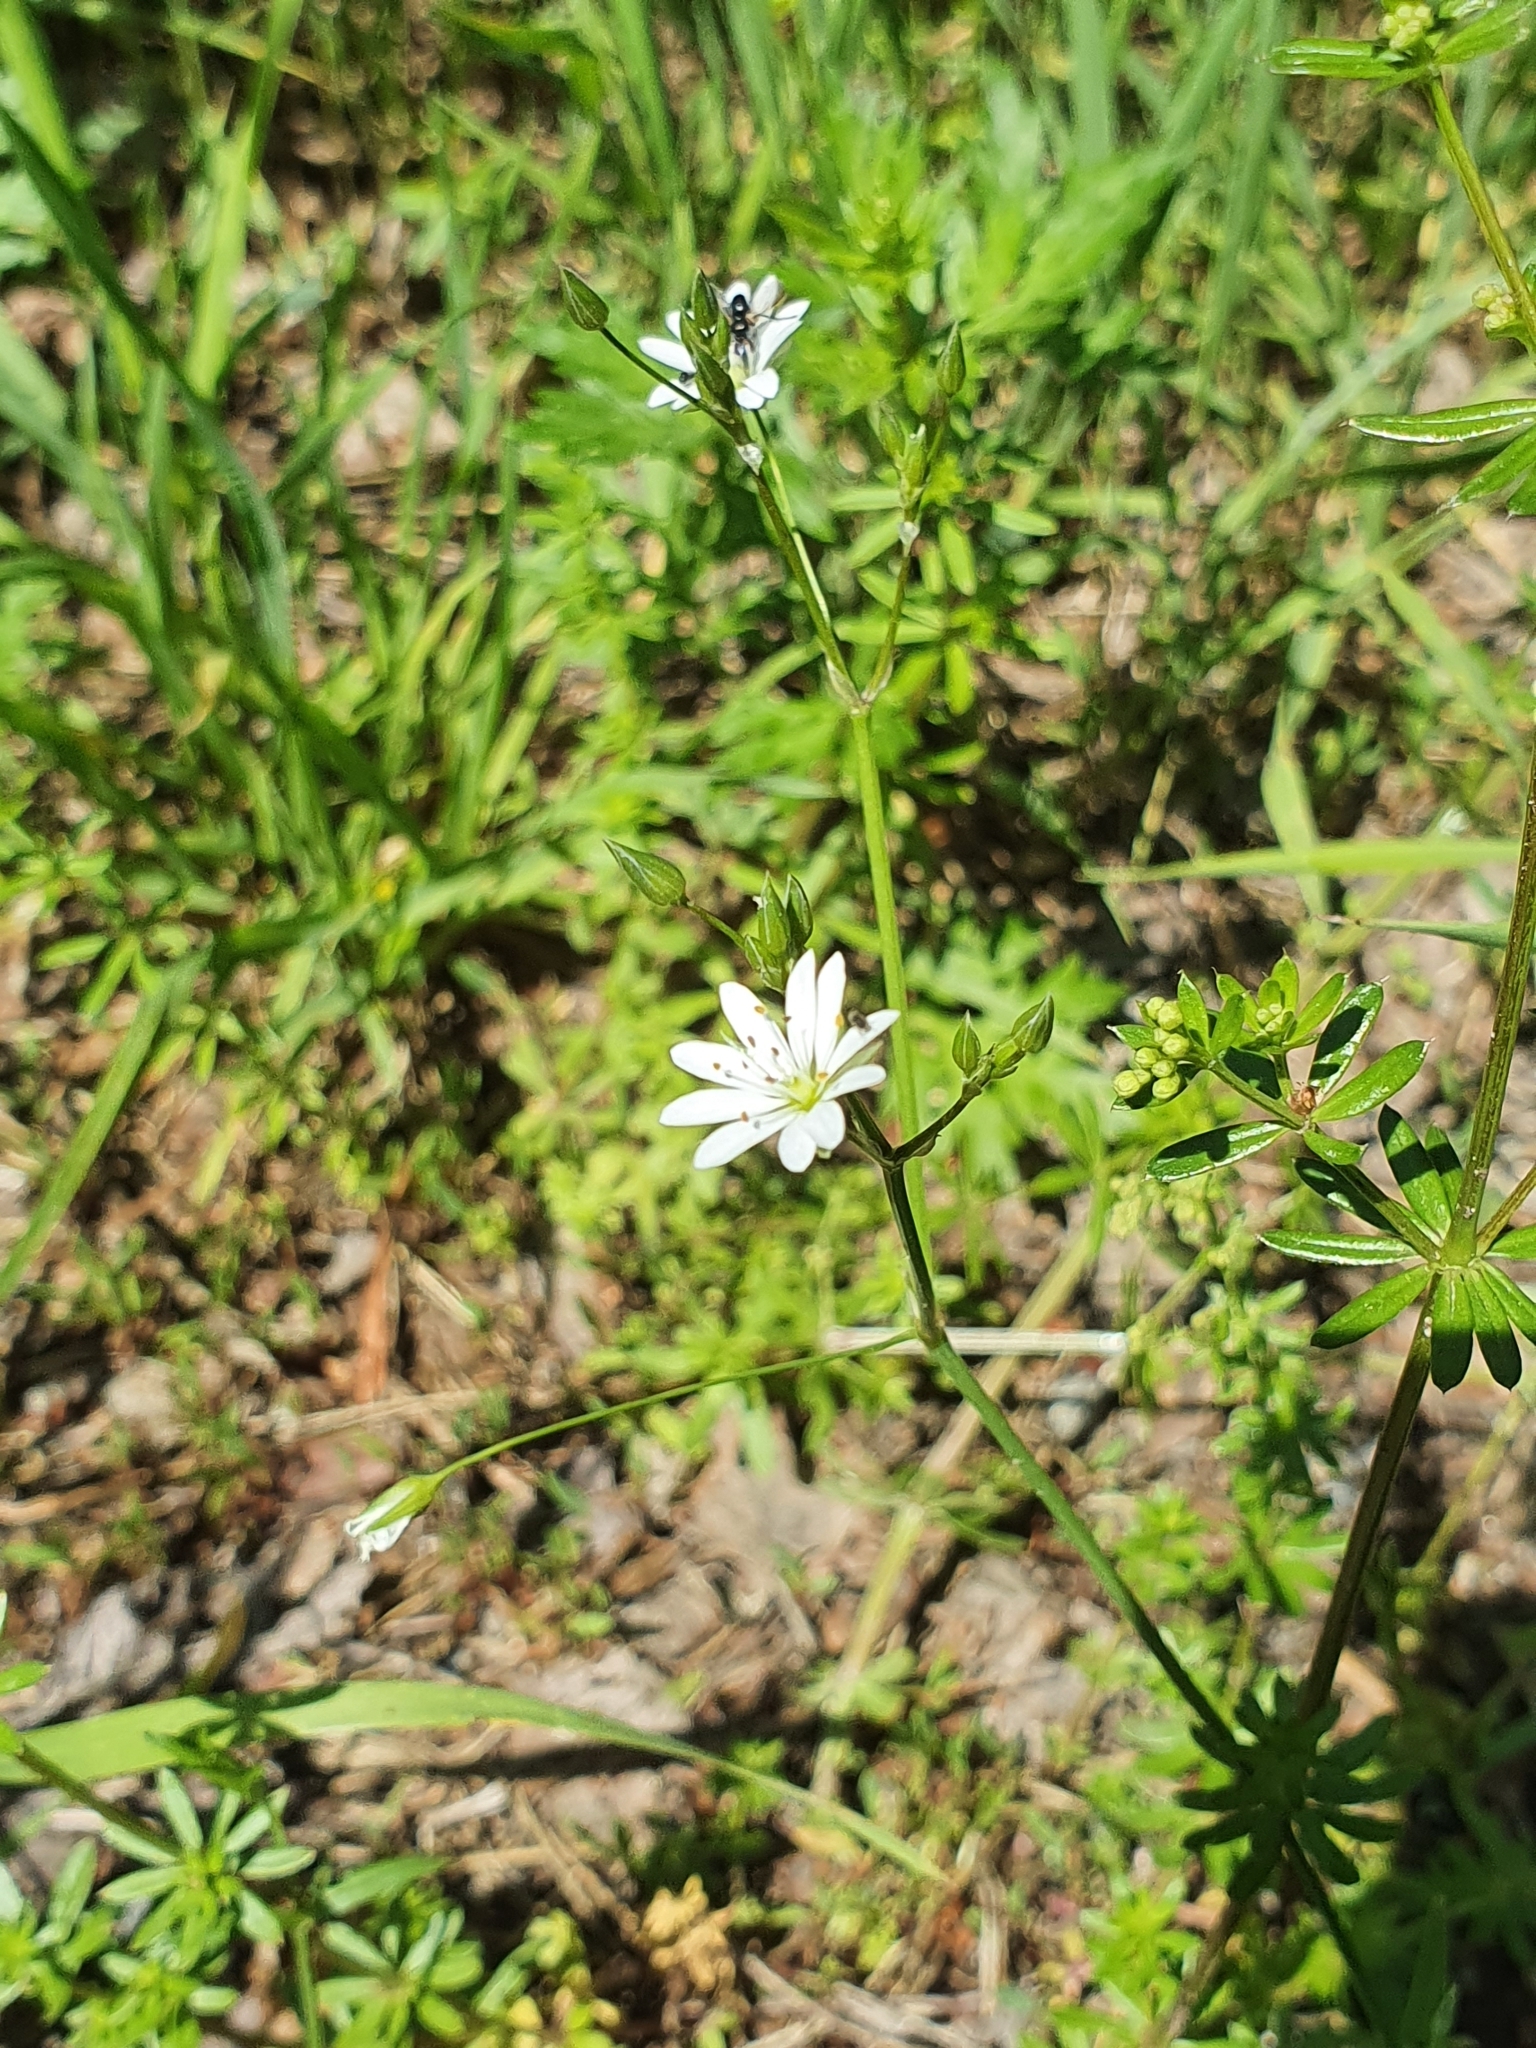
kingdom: Plantae
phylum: Tracheophyta
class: Magnoliopsida
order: Caryophyllales
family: Caryophyllaceae
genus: Stellaria
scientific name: Stellaria graminea
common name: Grass-like starwort
